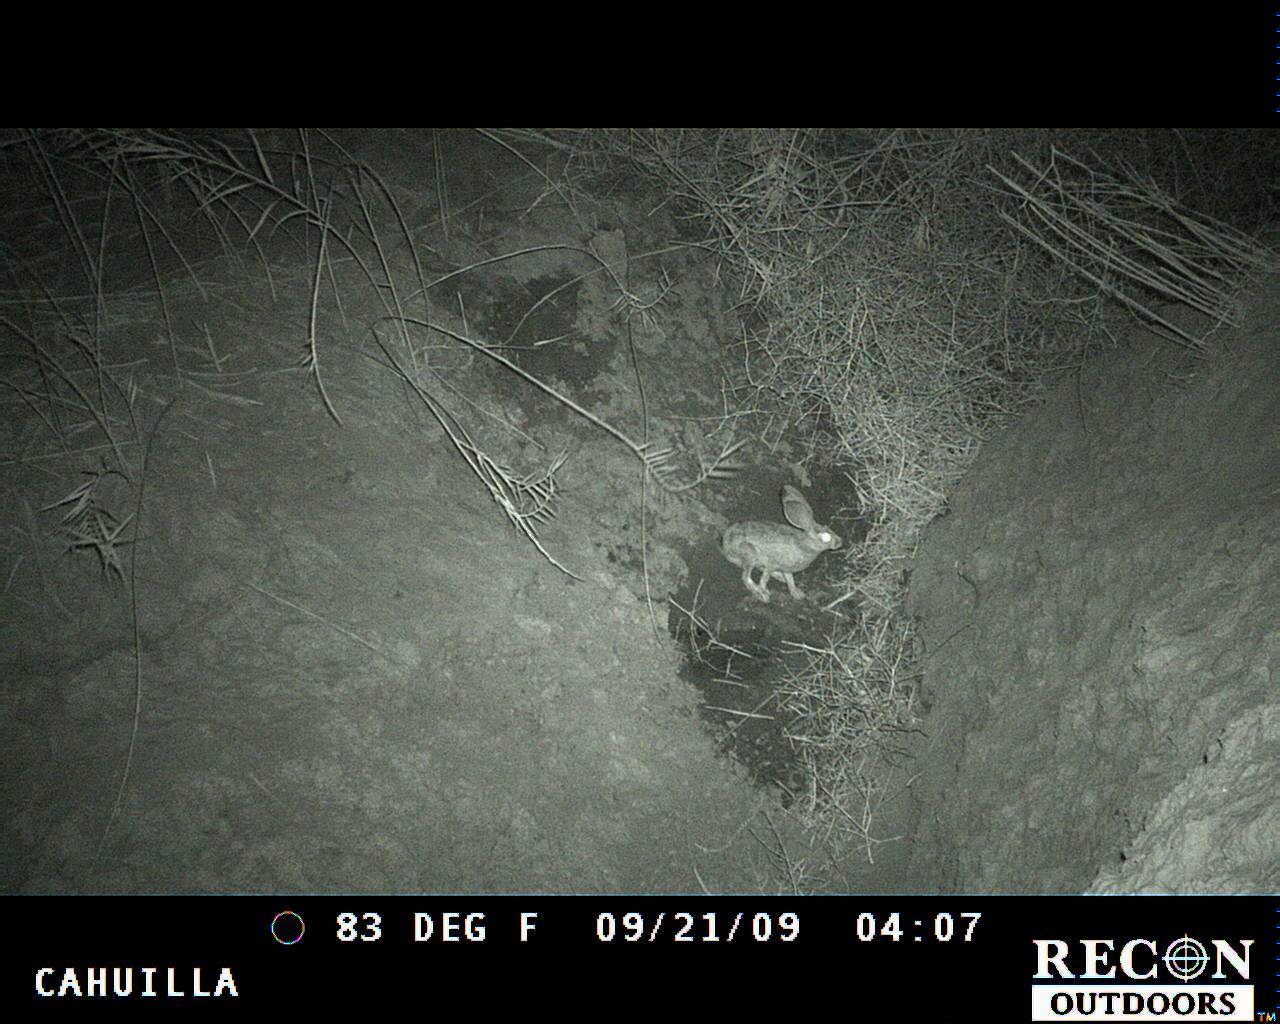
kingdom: Animalia
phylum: Chordata
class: Mammalia
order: Lagomorpha
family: Leporidae
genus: Lepus
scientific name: Lepus californicus
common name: Black-tailed jackrabbit
